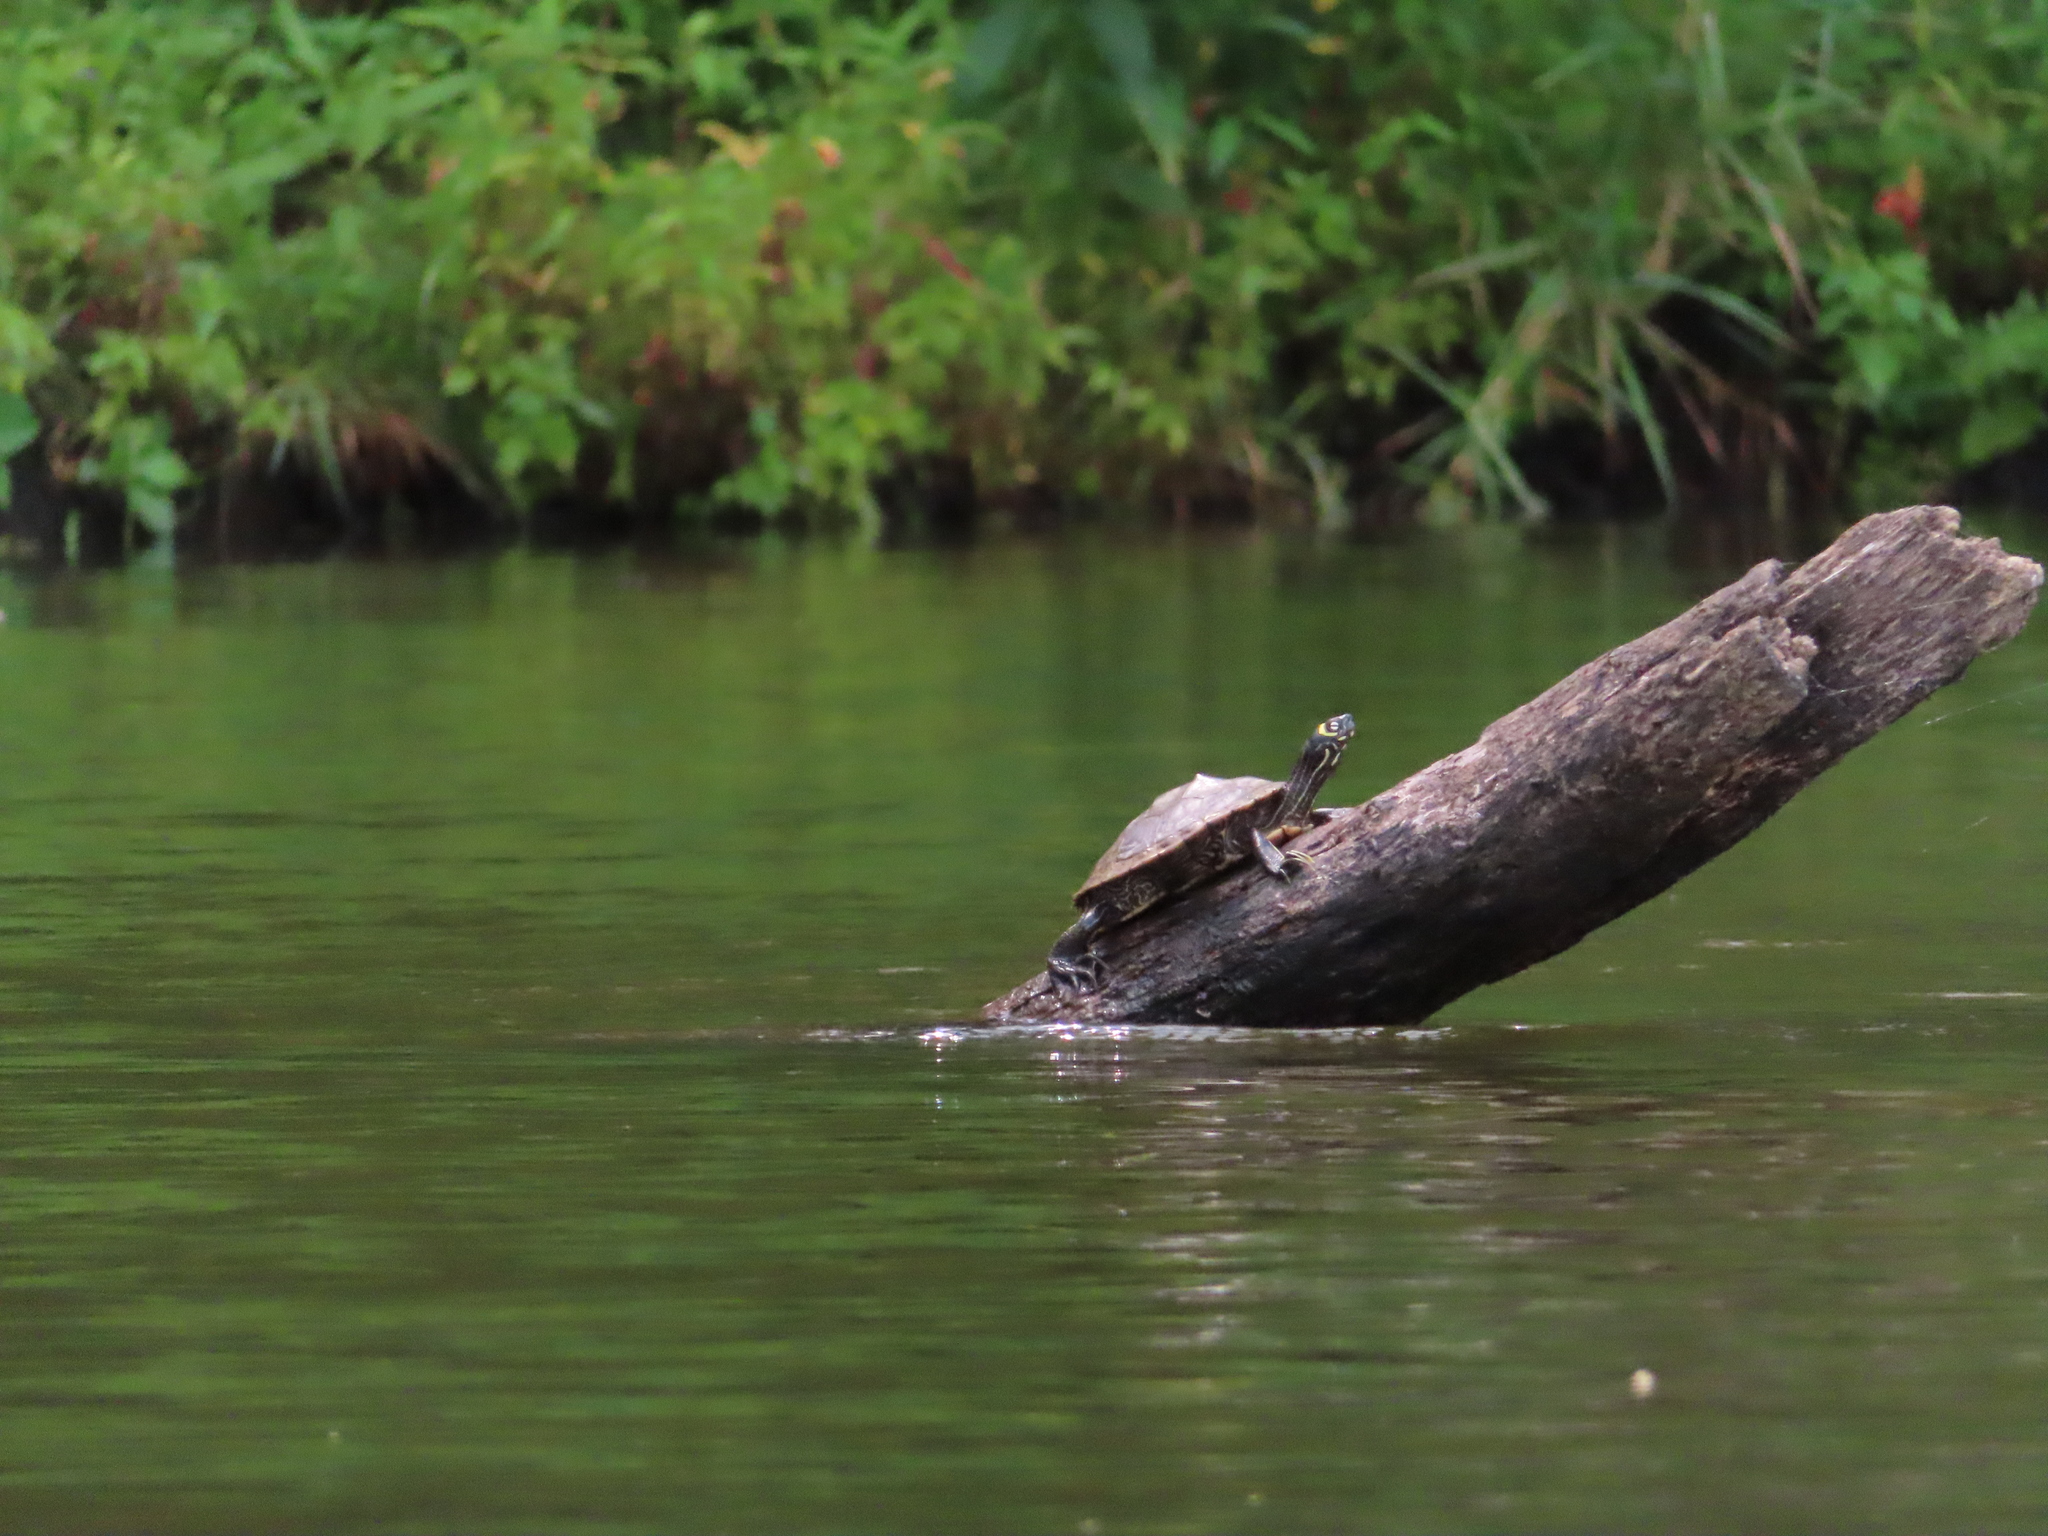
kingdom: Animalia
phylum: Chordata
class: Testudines
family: Emydidae
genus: Graptemys
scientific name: Graptemys ouachitensis
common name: Ouachita map turtle
